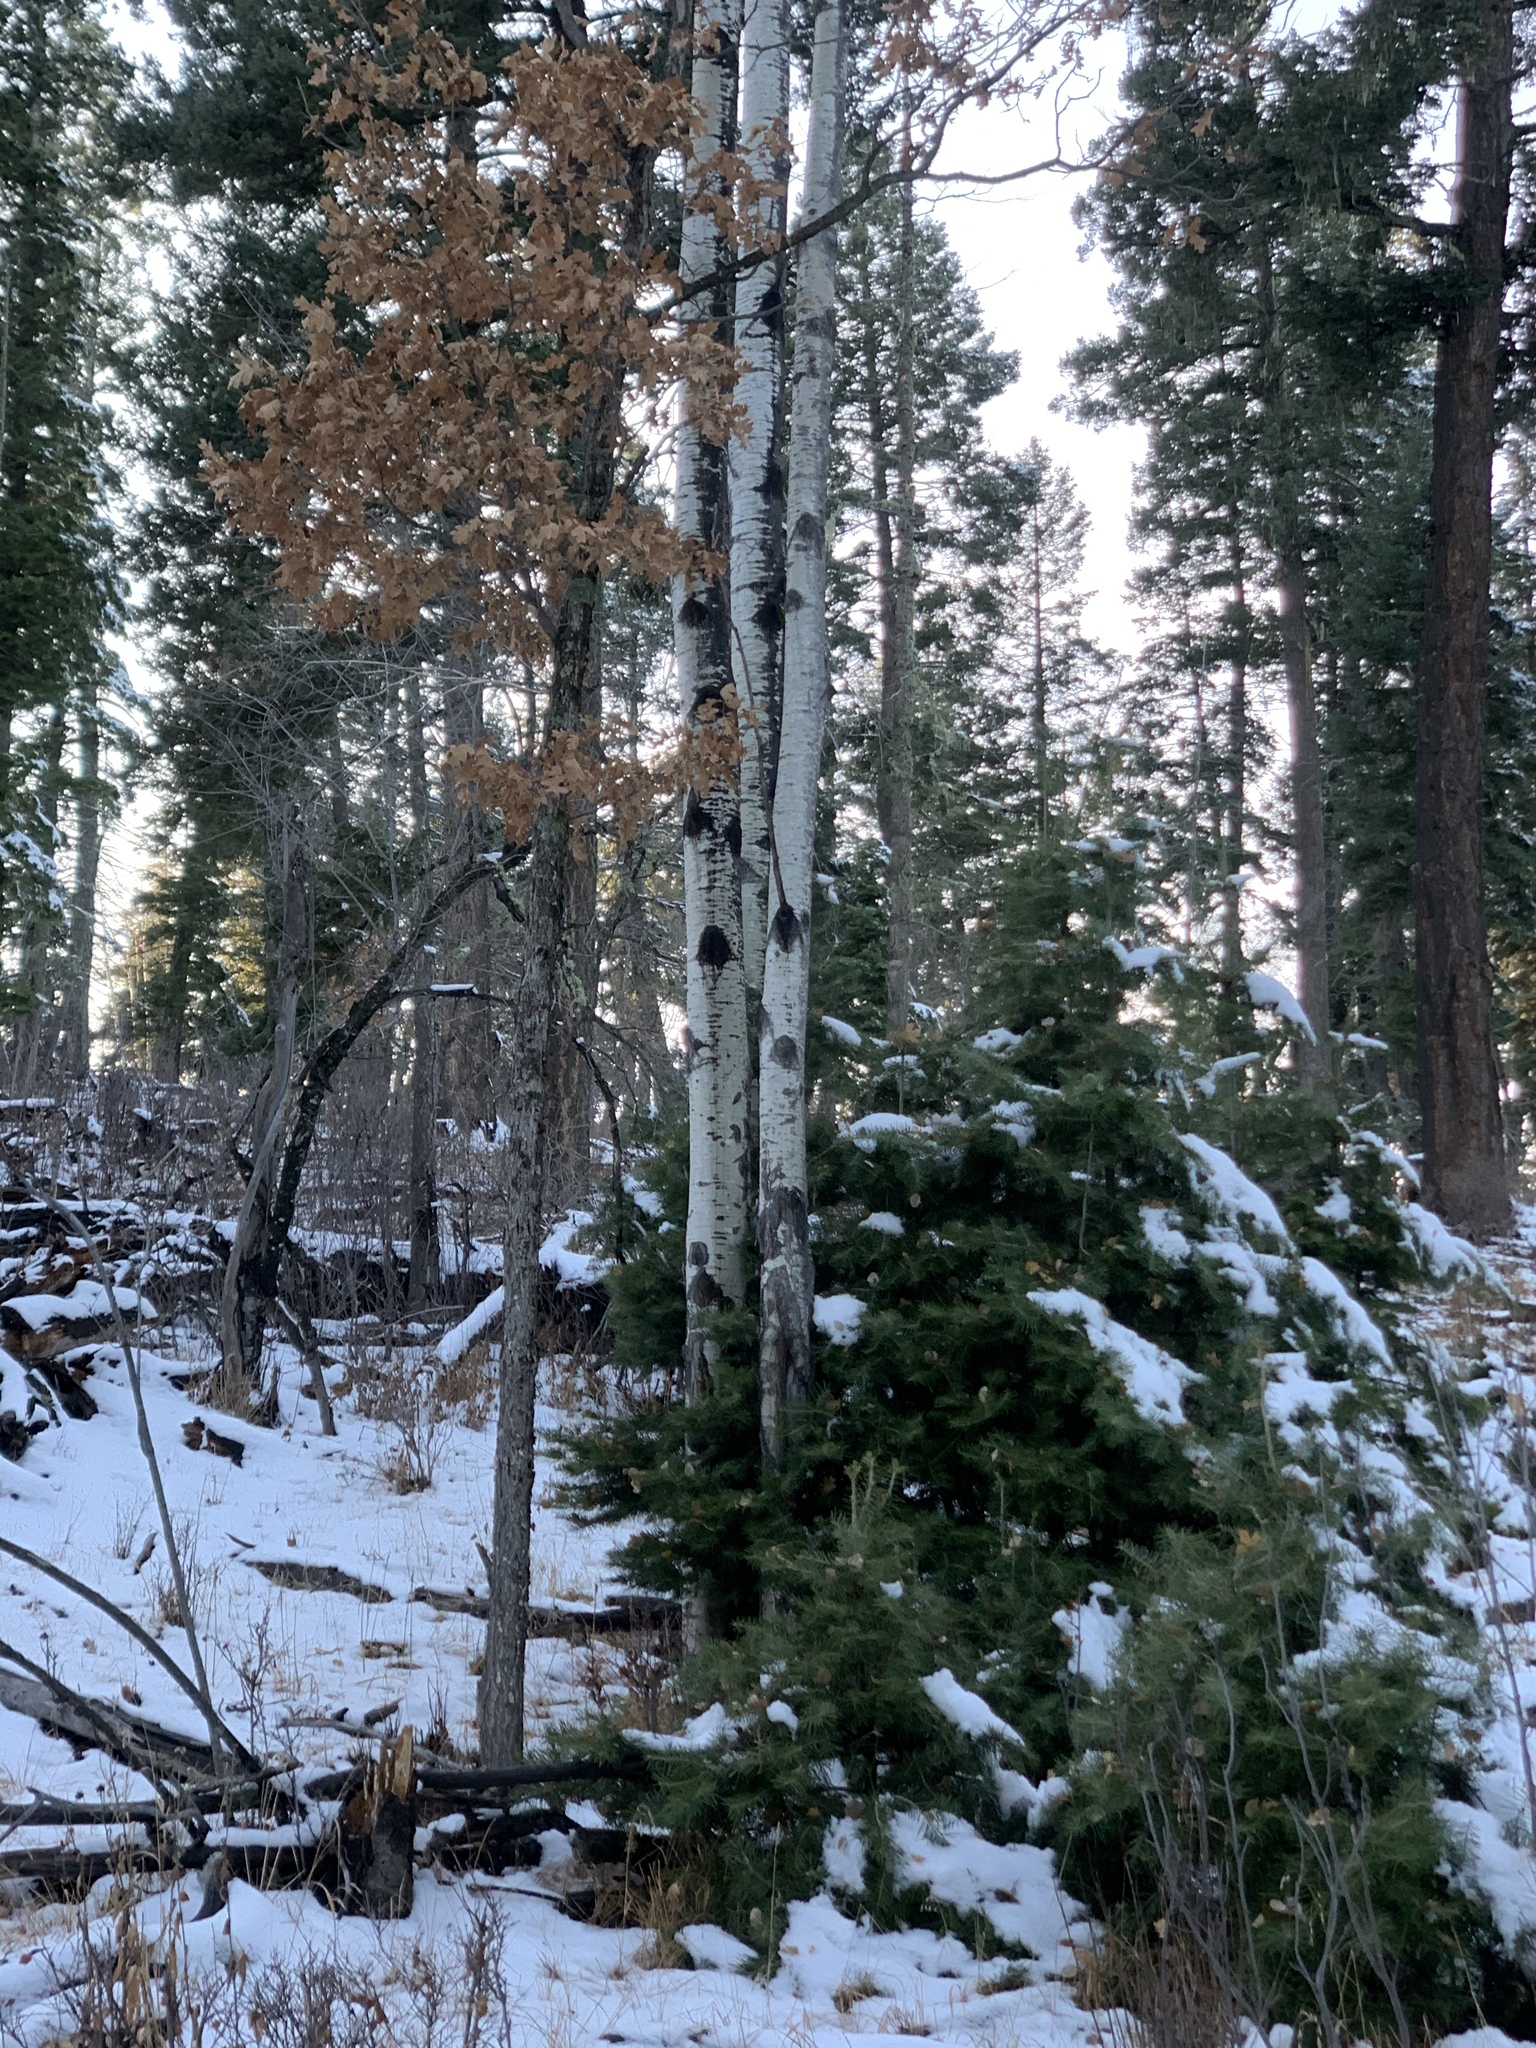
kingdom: Plantae
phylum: Tracheophyta
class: Magnoliopsida
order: Fagales
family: Fagaceae
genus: Quercus
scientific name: Quercus gambelii
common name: Gambel oak
